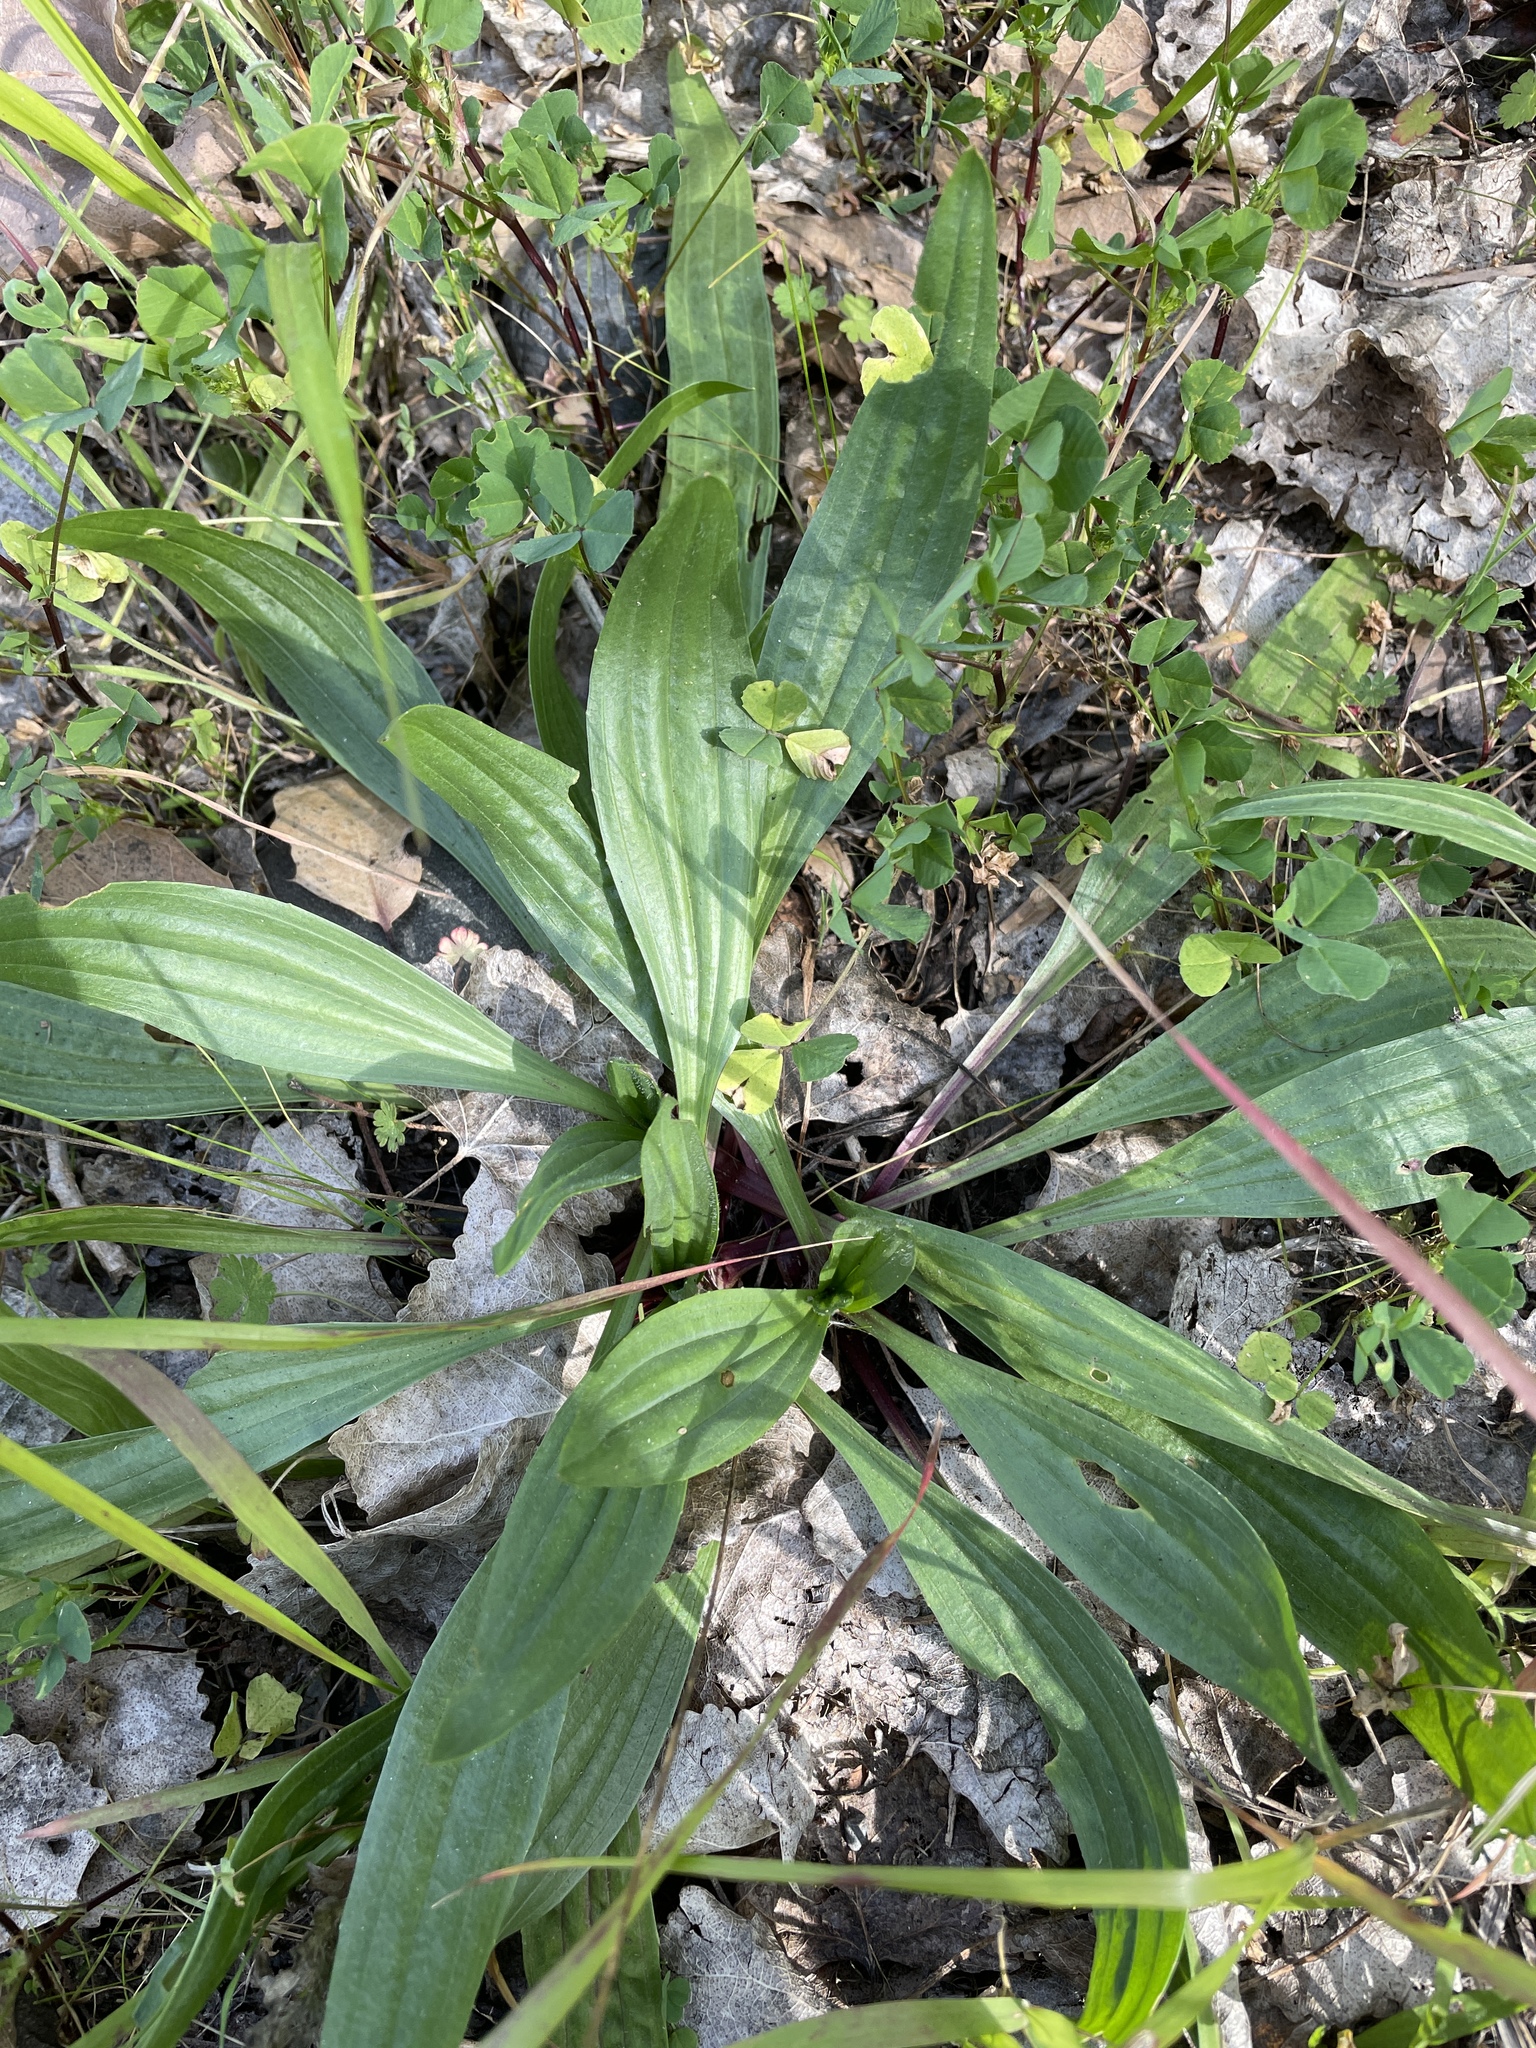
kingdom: Plantae
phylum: Tracheophyta
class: Magnoliopsida
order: Lamiales
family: Plantaginaceae
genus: Plantago
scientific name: Plantago lanceolata
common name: Ribwort plantain
